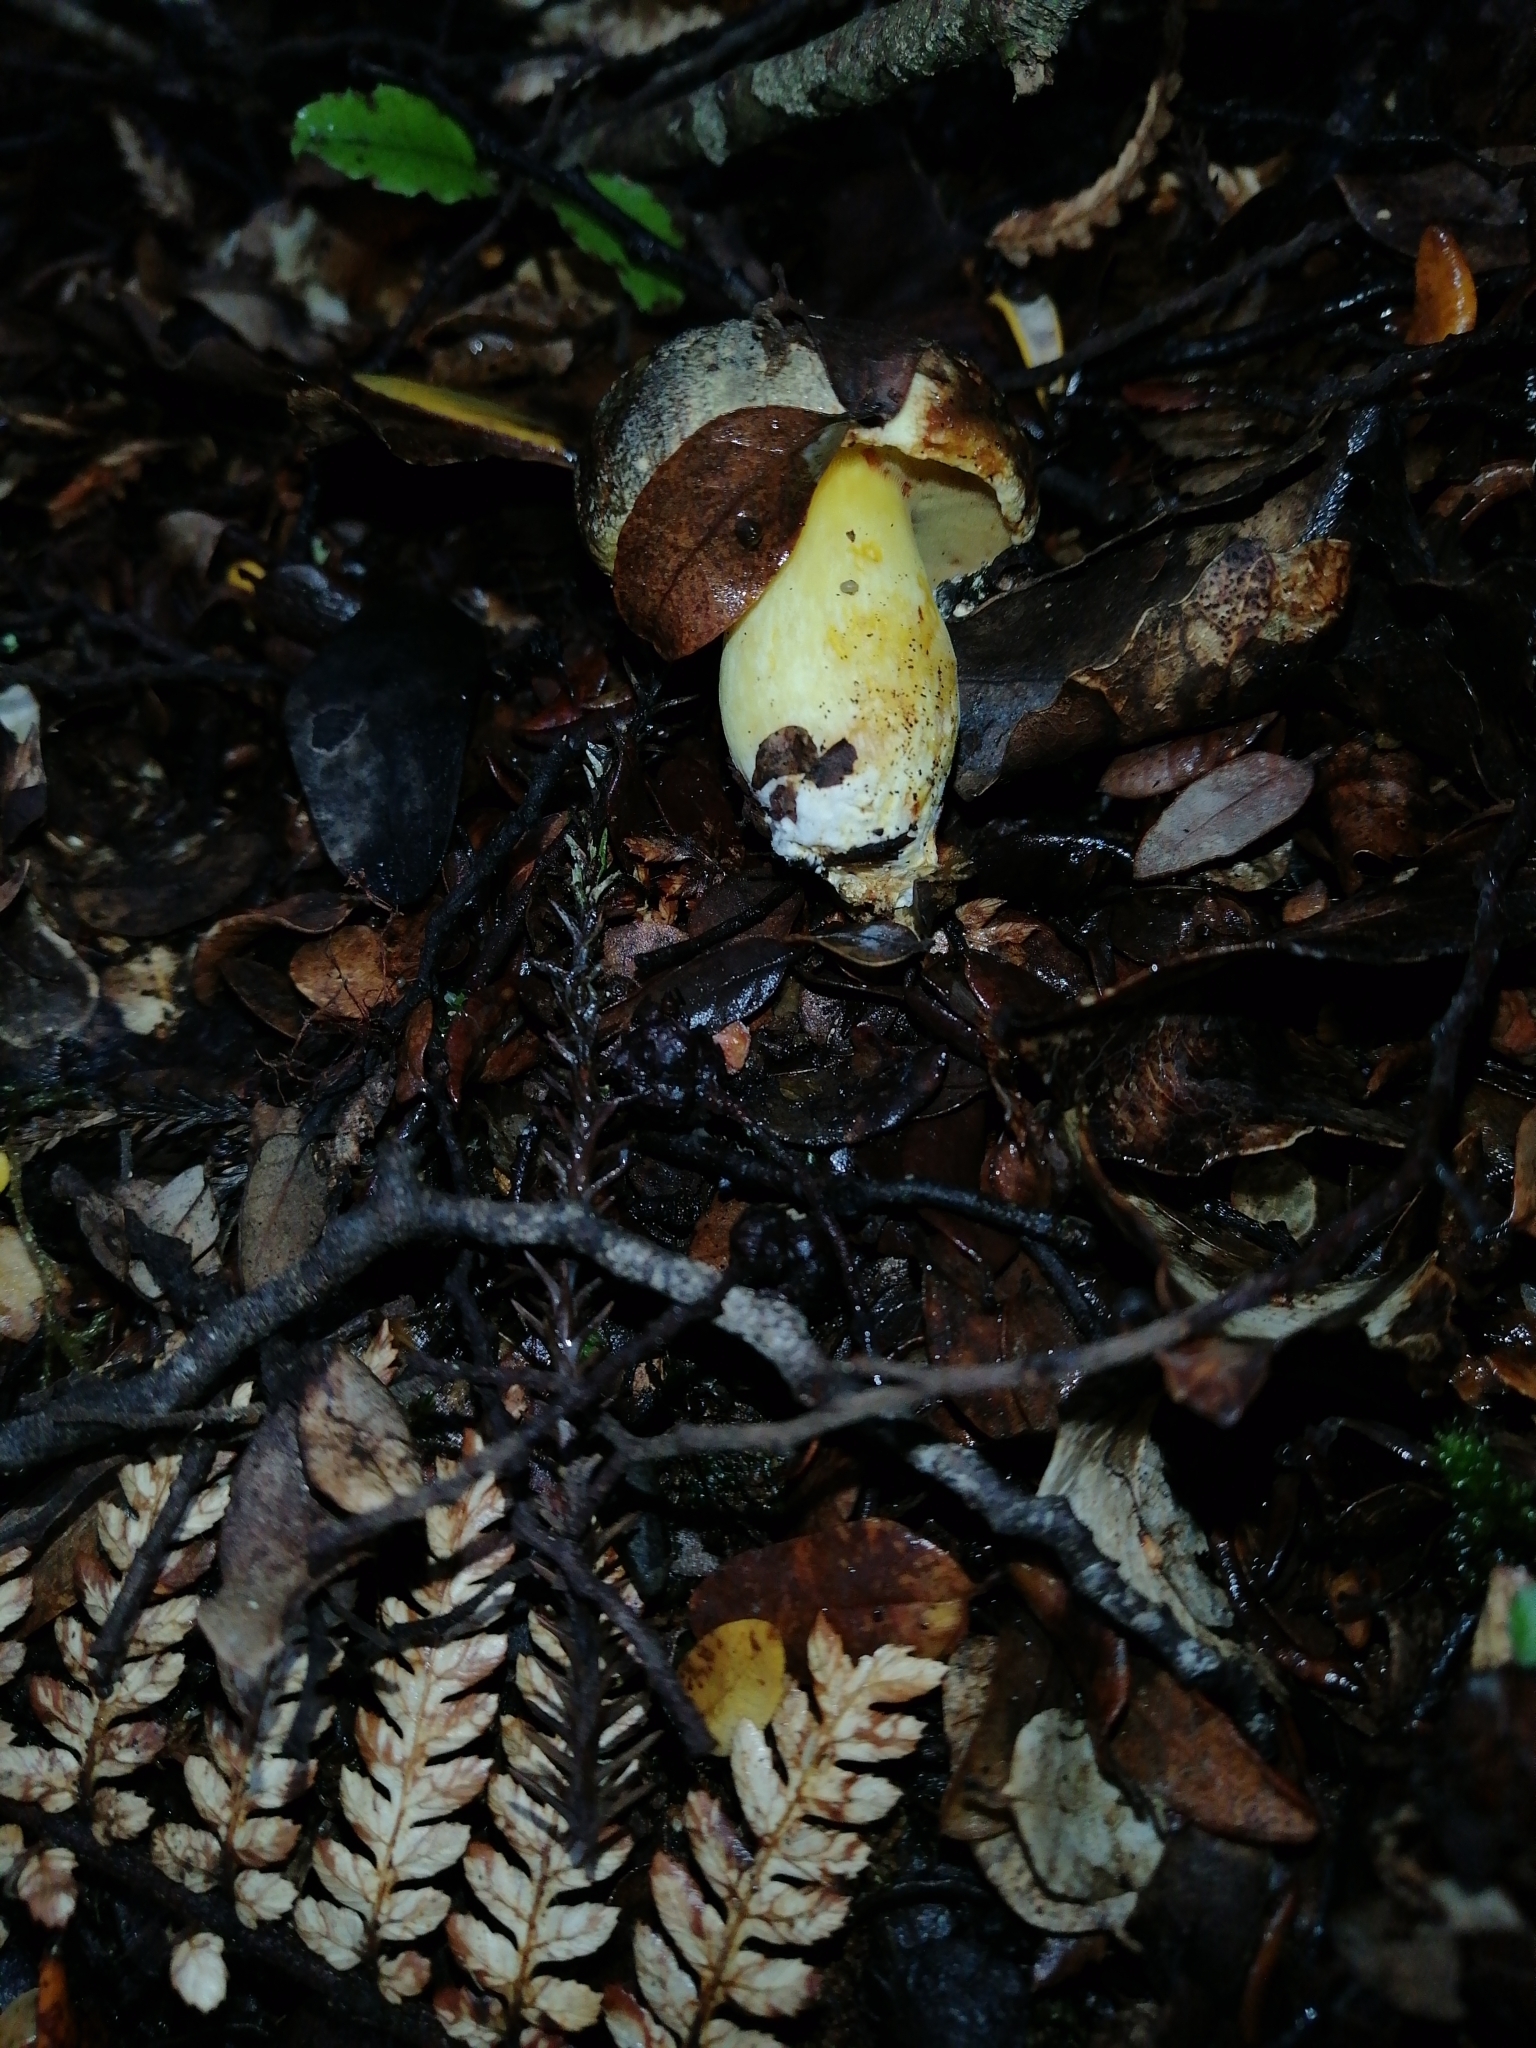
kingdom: Fungi
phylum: Basidiomycota
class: Agaricomycetes
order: Boletales
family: Boletaceae
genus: Xerocomus
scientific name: Xerocomus leptospermi
